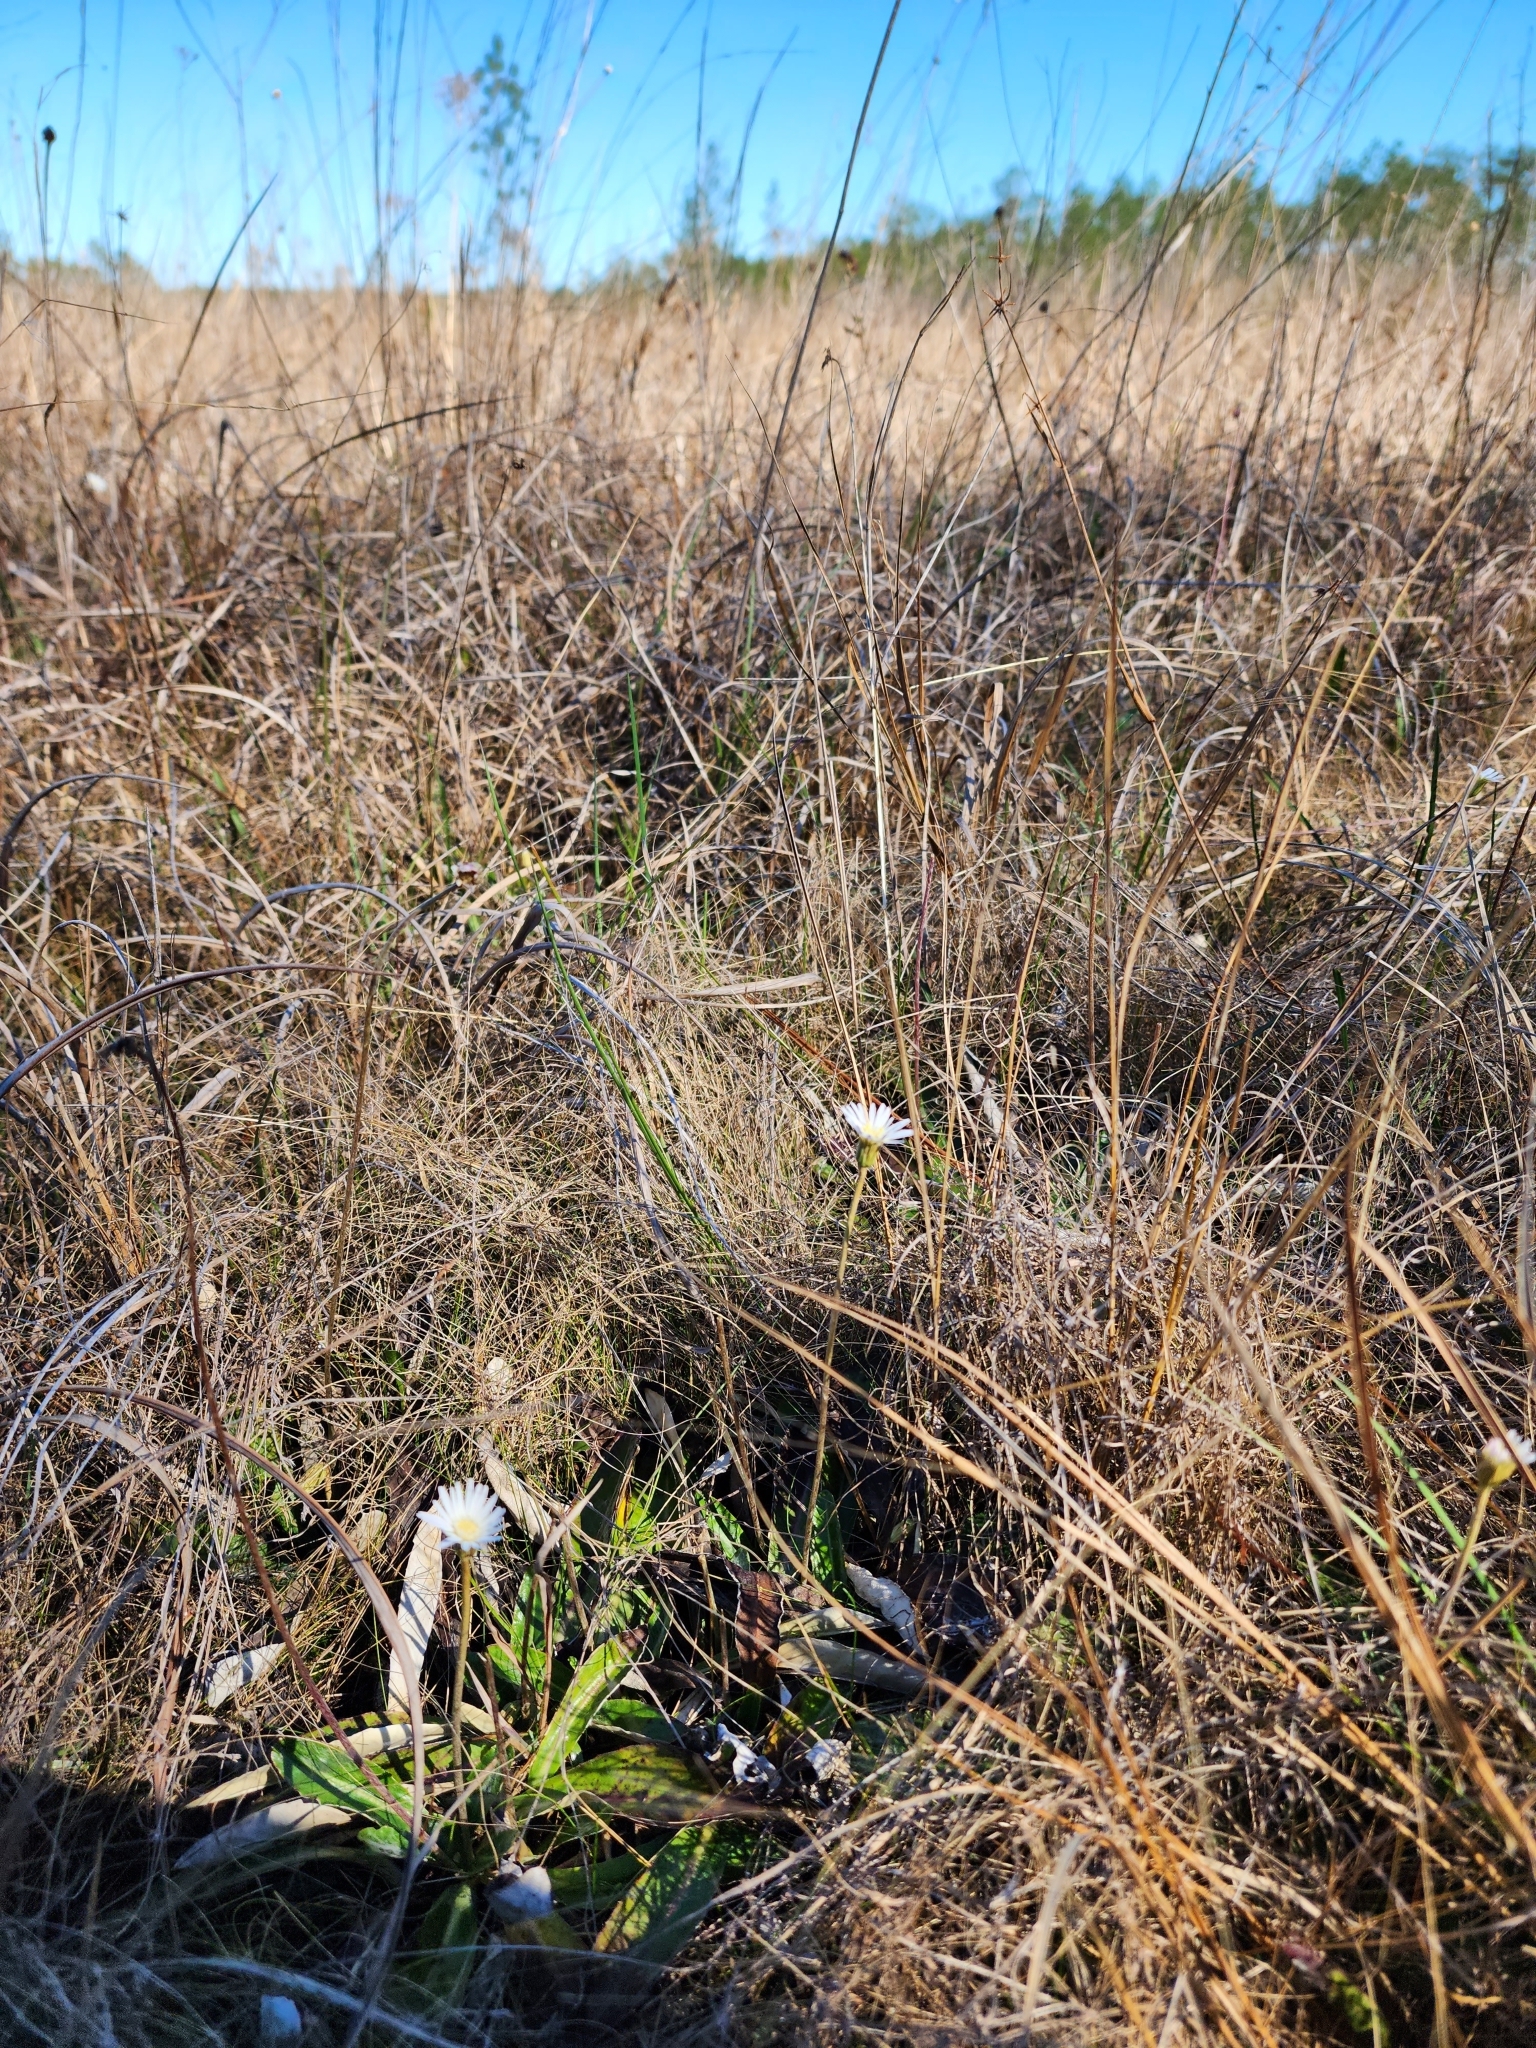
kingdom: Plantae
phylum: Tracheophyta
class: Magnoliopsida
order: Asterales
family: Asteraceae
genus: Chaptalia
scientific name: Chaptalia tomentosa
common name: Woolly sunbonnet
